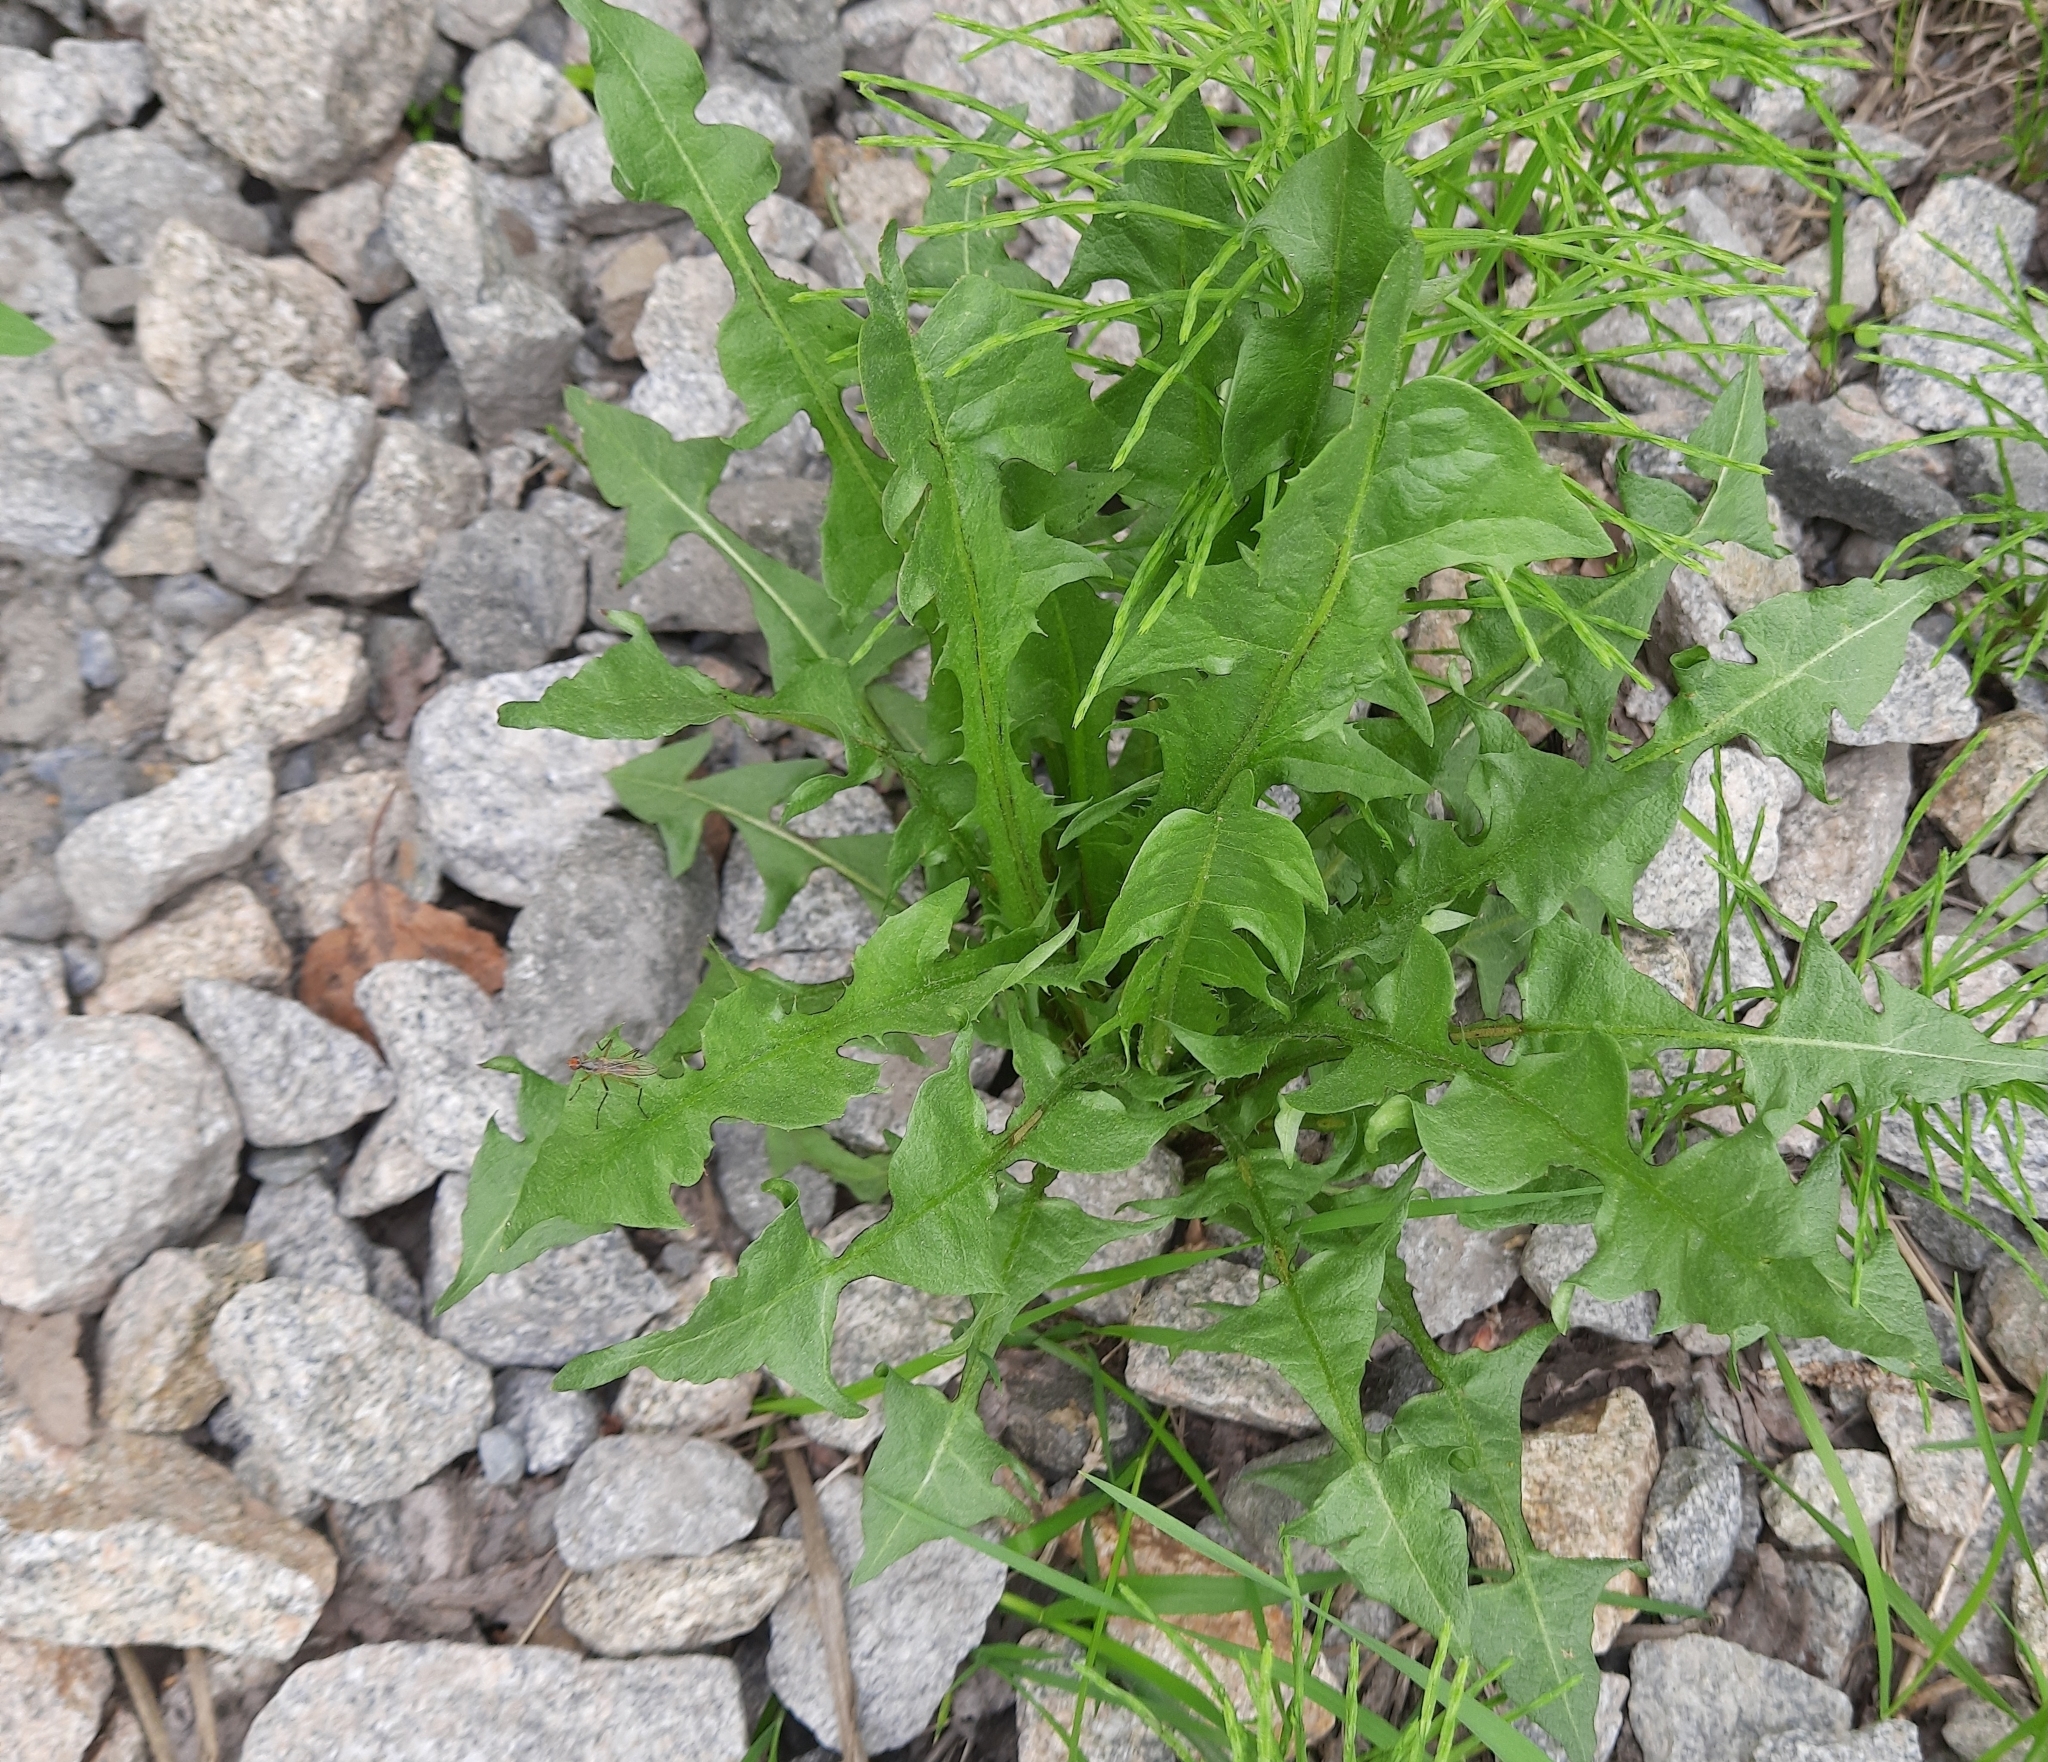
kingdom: Plantae
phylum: Tracheophyta
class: Magnoliopsida
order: Asterales
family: Asteraceae
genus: Taraxacum
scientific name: Taraxacum officinale
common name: Common dandelion
